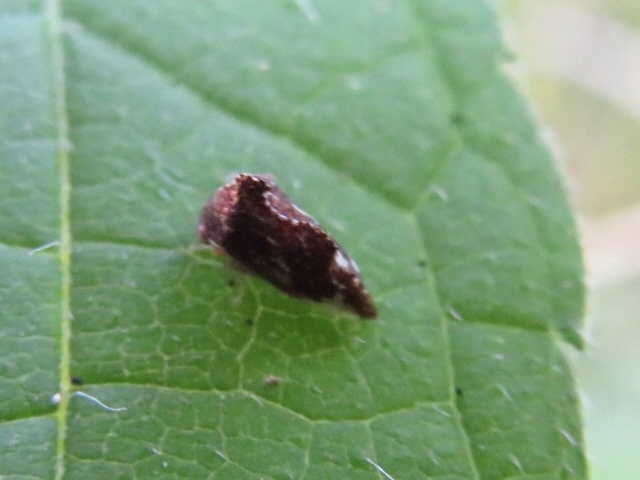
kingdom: Animalia
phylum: Arthropoda
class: Insecta
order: Hemiptera
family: Membracidae
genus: Entylia
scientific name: Entylia carinata
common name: Keeled treehopper
